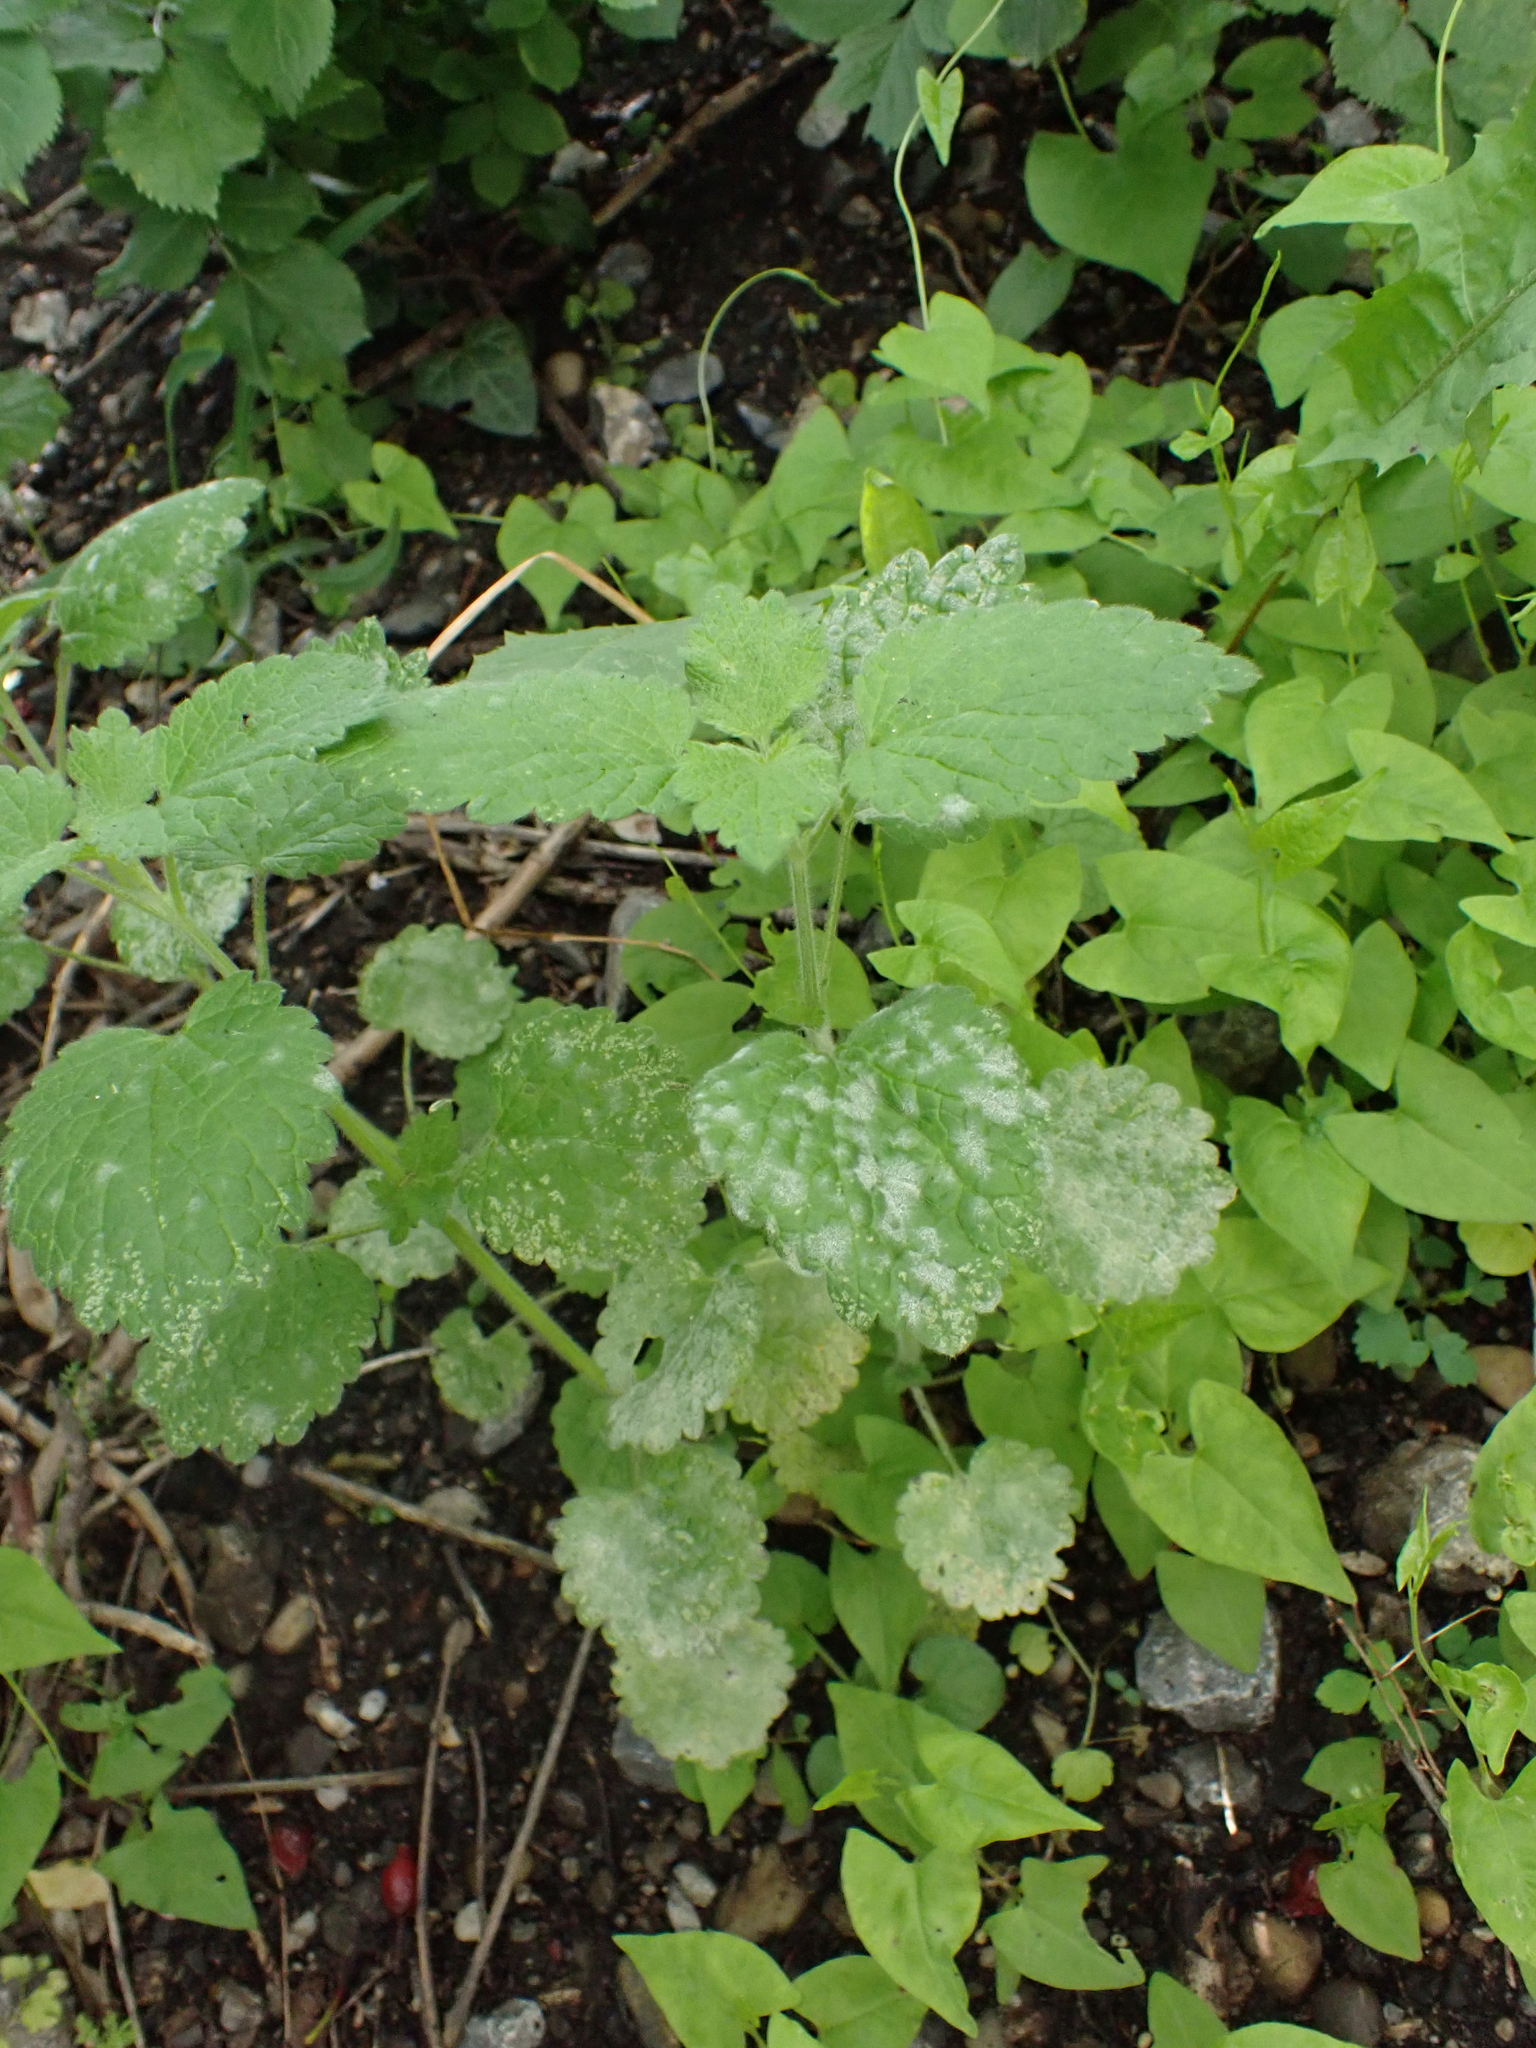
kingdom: Fungi
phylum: Ascomycota
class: Leotiomycetes
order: Helotiales
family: Erysiphaceae
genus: Neoerysiphe
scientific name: Neoerysiphe galeopsidis
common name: Mint mildew
